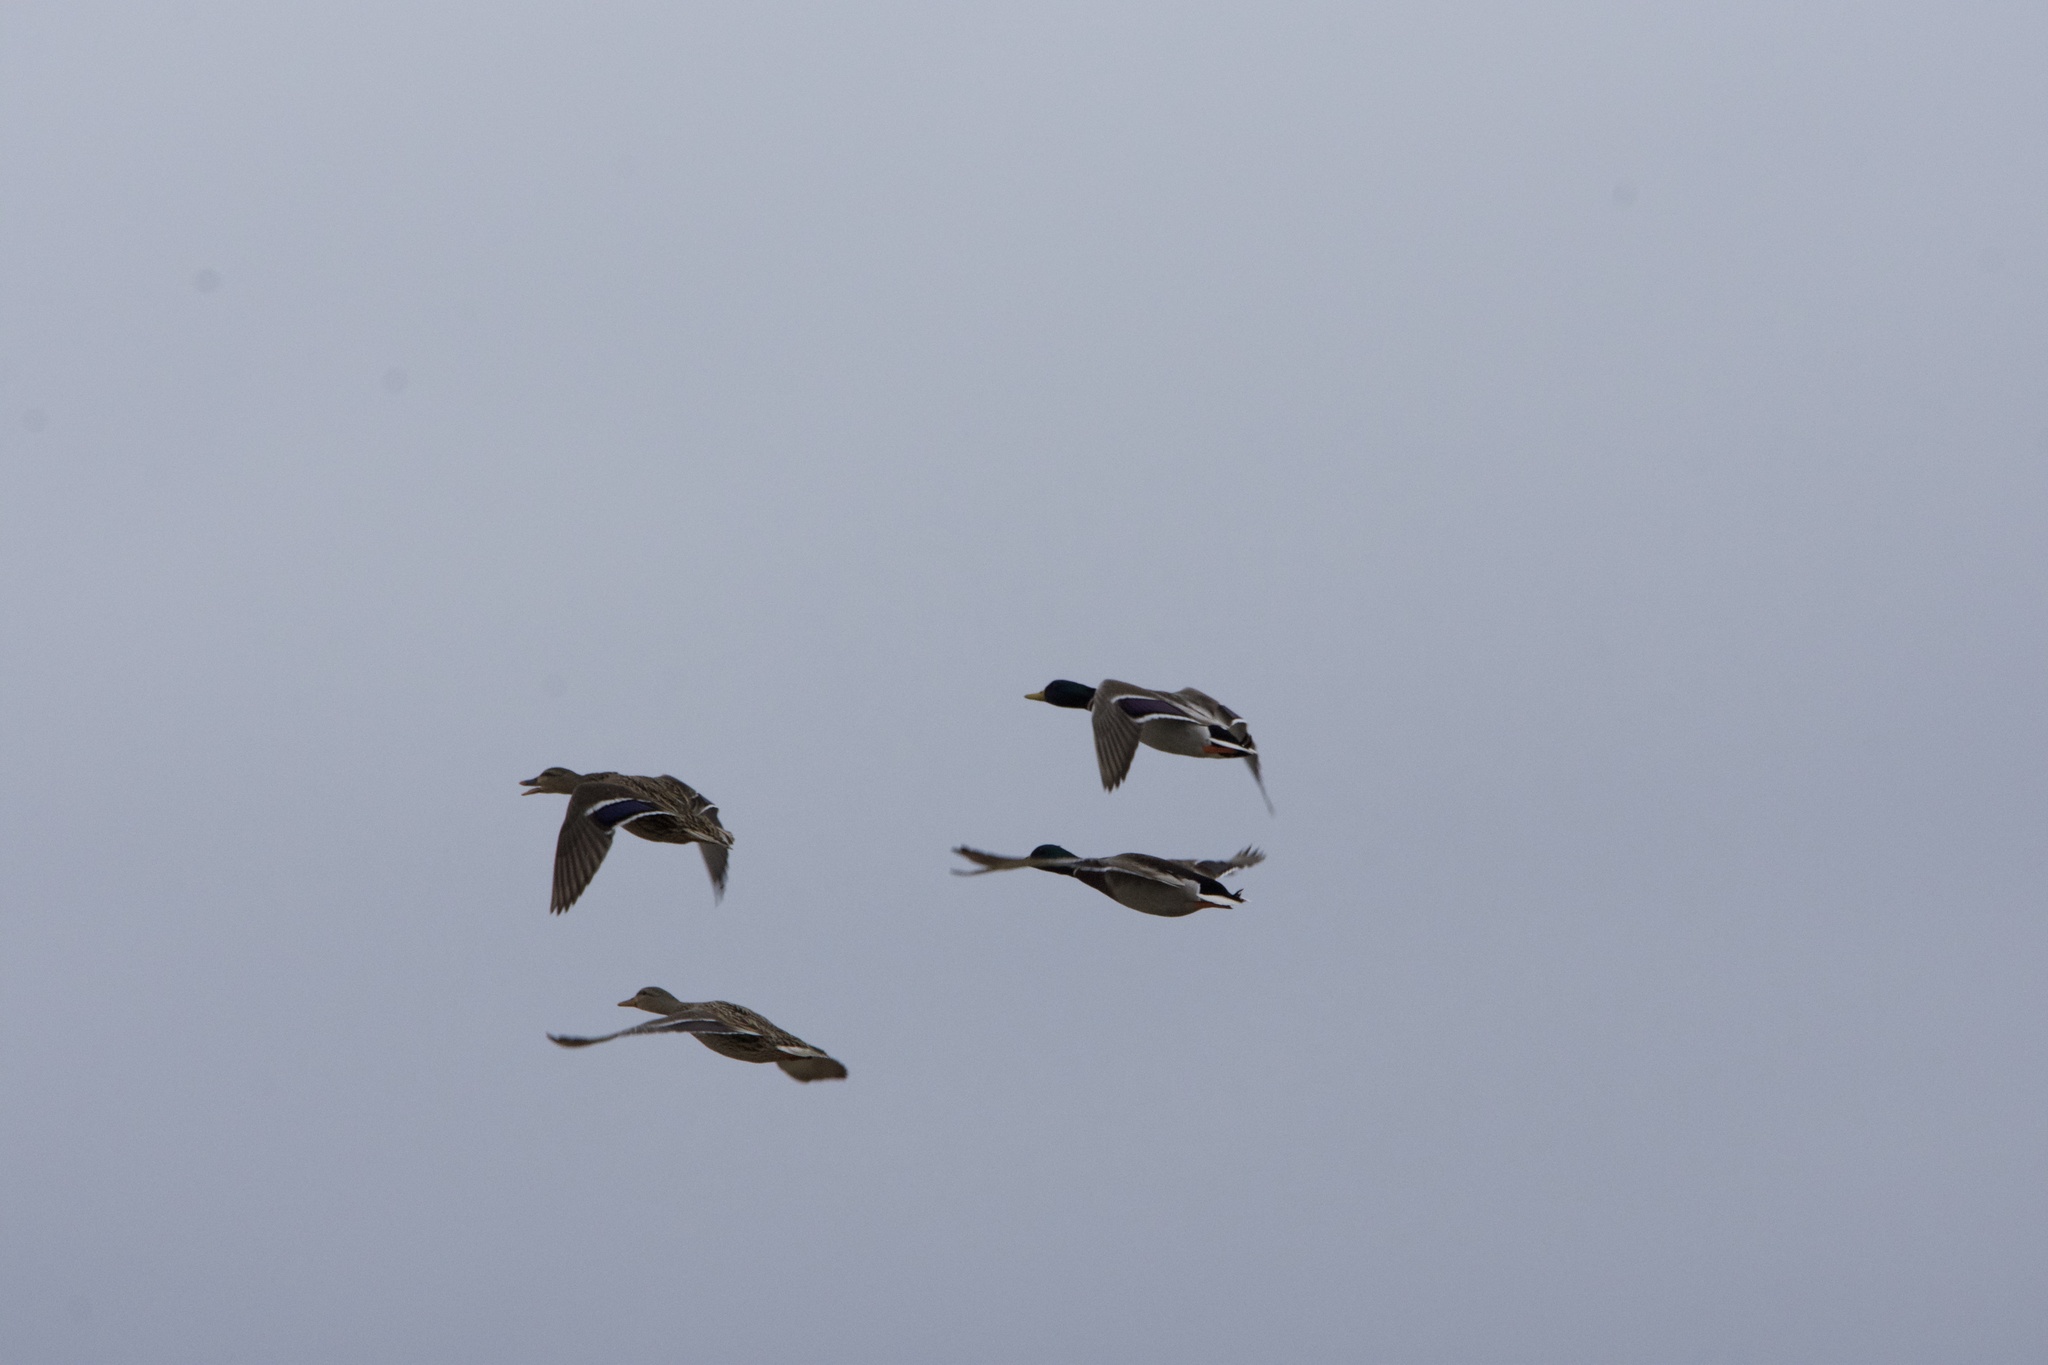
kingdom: Animalia
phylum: Chordata
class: Aves
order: Anseriformes
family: Anatidae
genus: Anas
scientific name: Anas platyrhynchos
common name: Mallard
